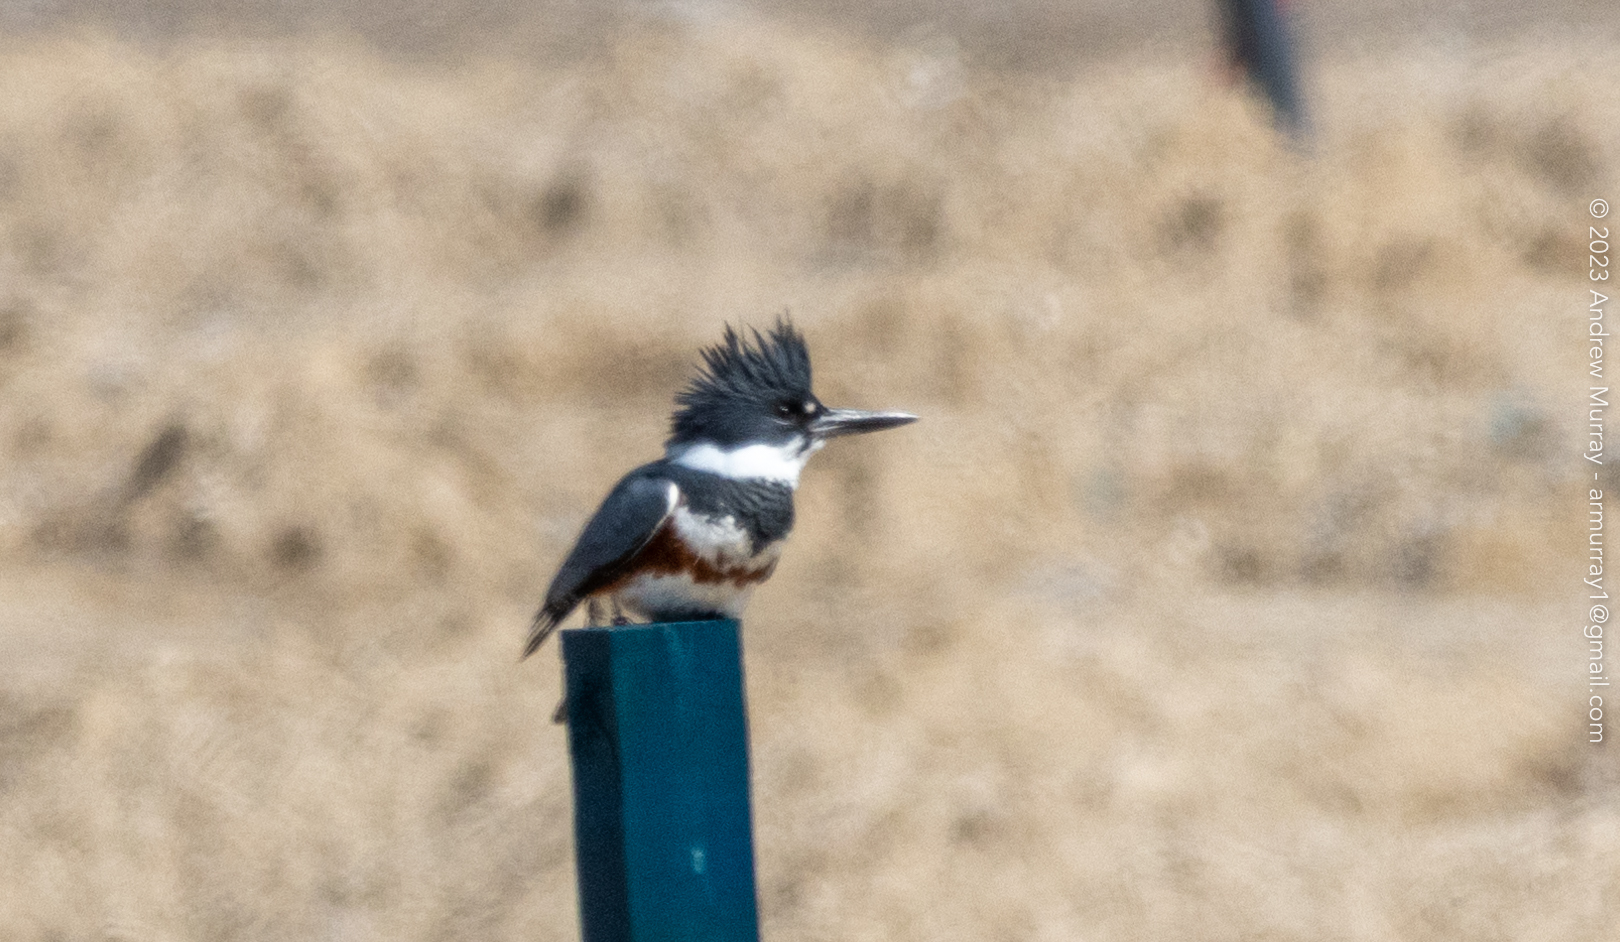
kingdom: Animalia
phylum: Chordata
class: Aves
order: Coraciiformes
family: Alcedinidae
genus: Megaceryle
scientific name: Megaceryle alcyon
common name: Belted kingfisher
